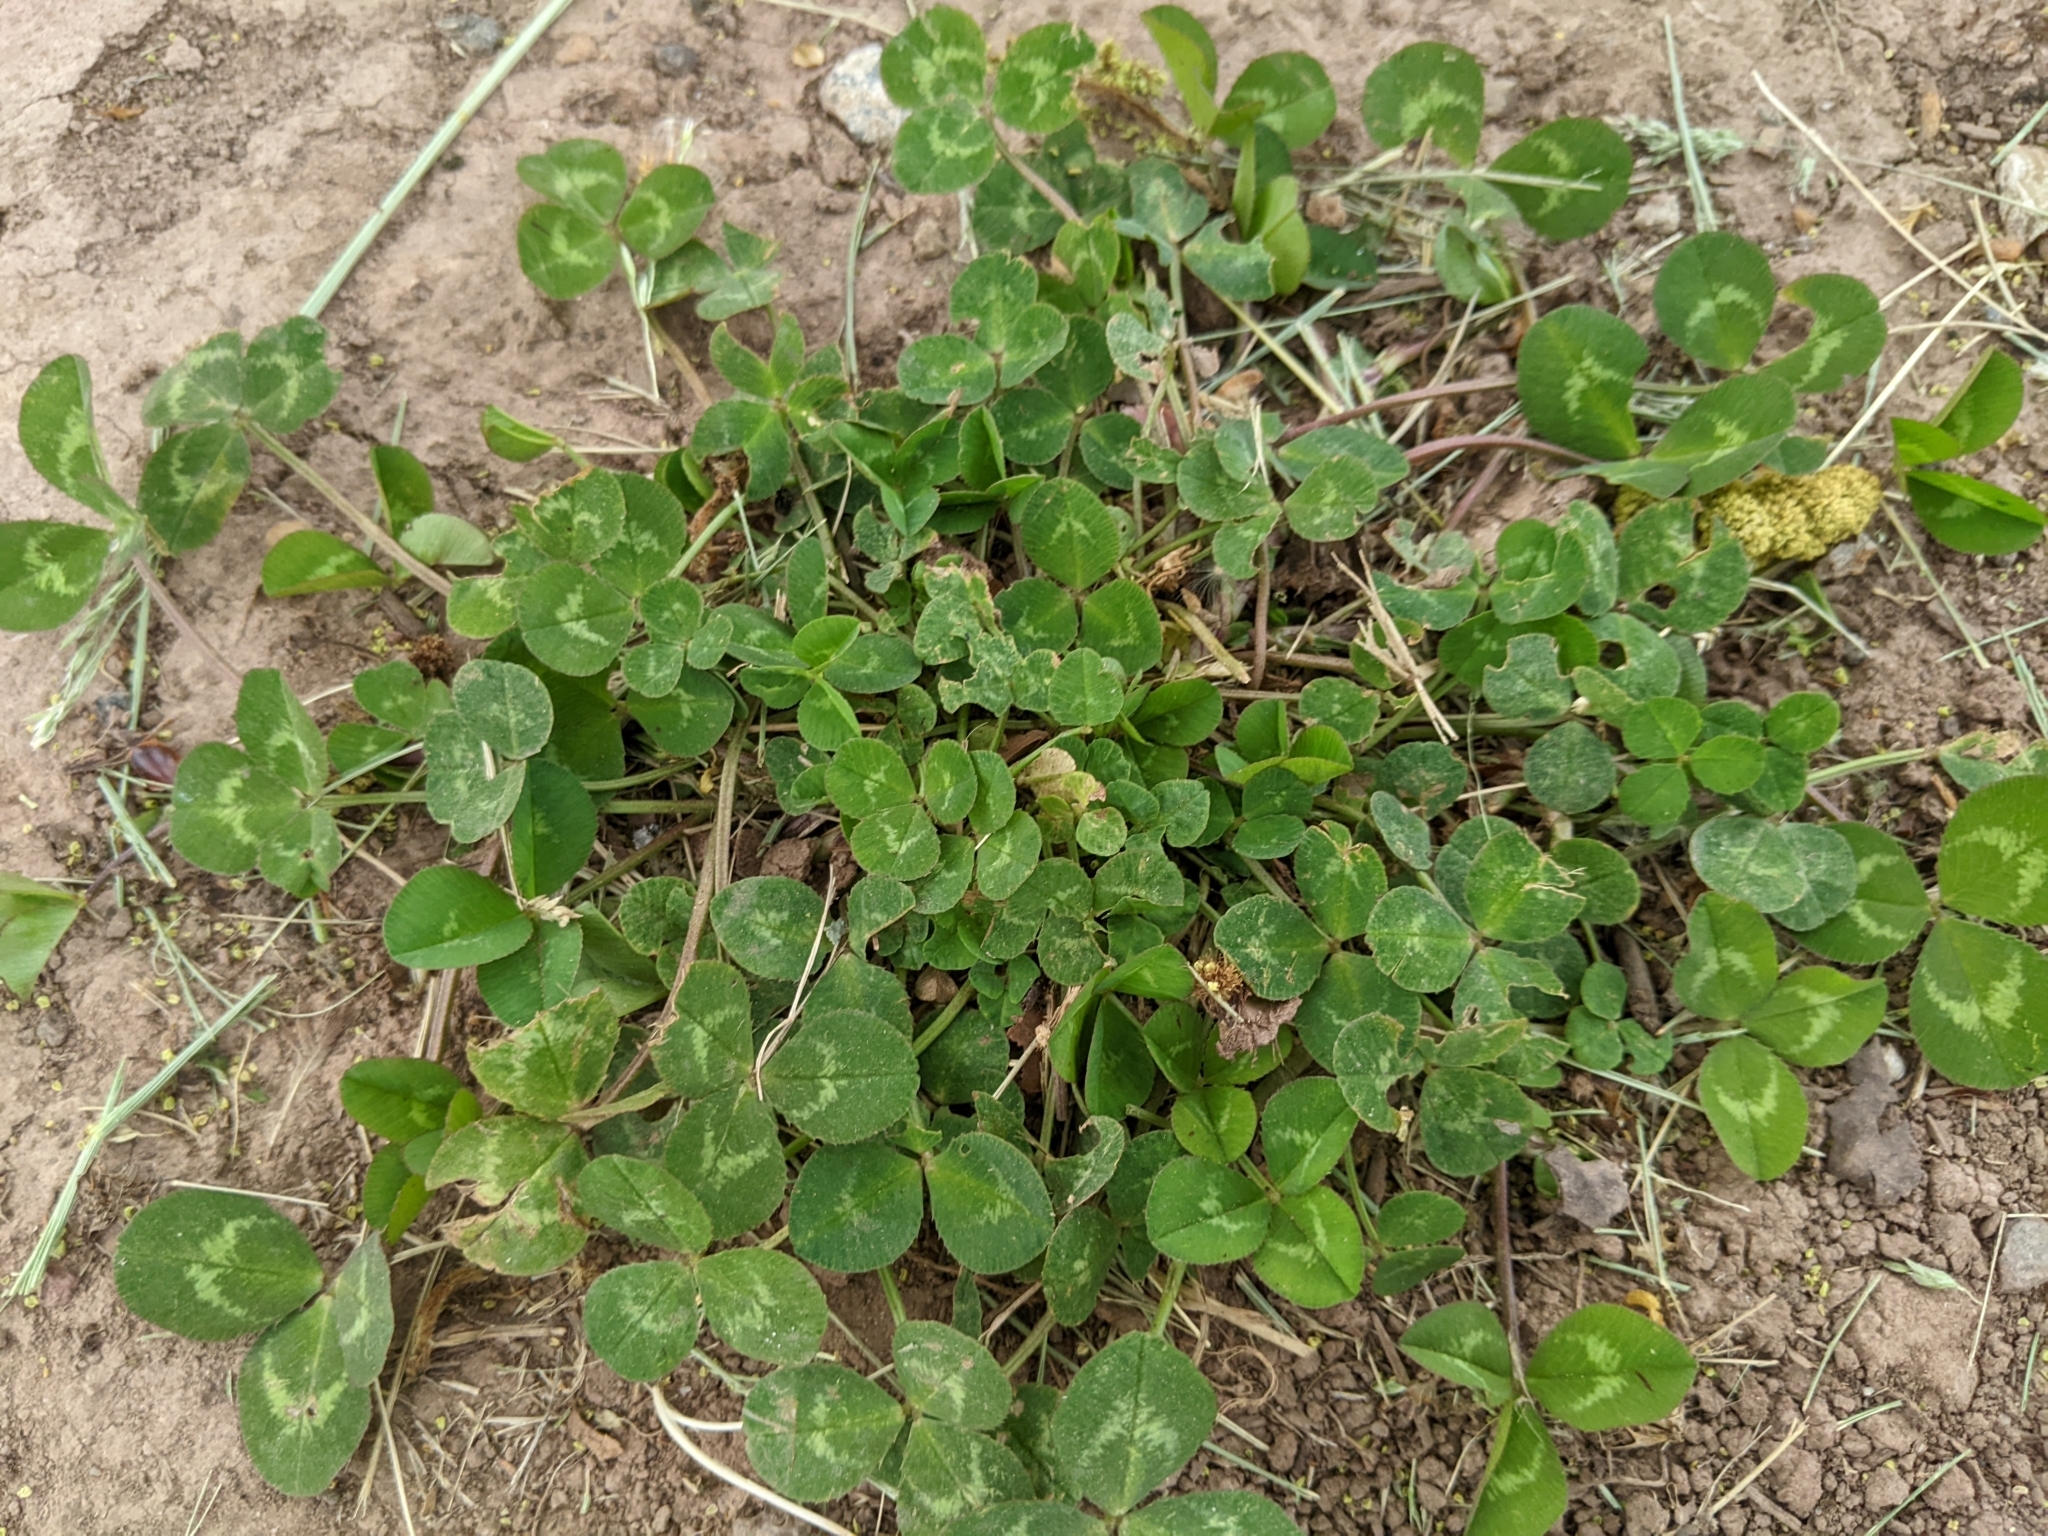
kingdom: Plantae
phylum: Tracheophyta
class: Magnoliopsida
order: Fabales
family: Fabaceae
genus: Trifolium
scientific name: Trifolium repens
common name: White clover
